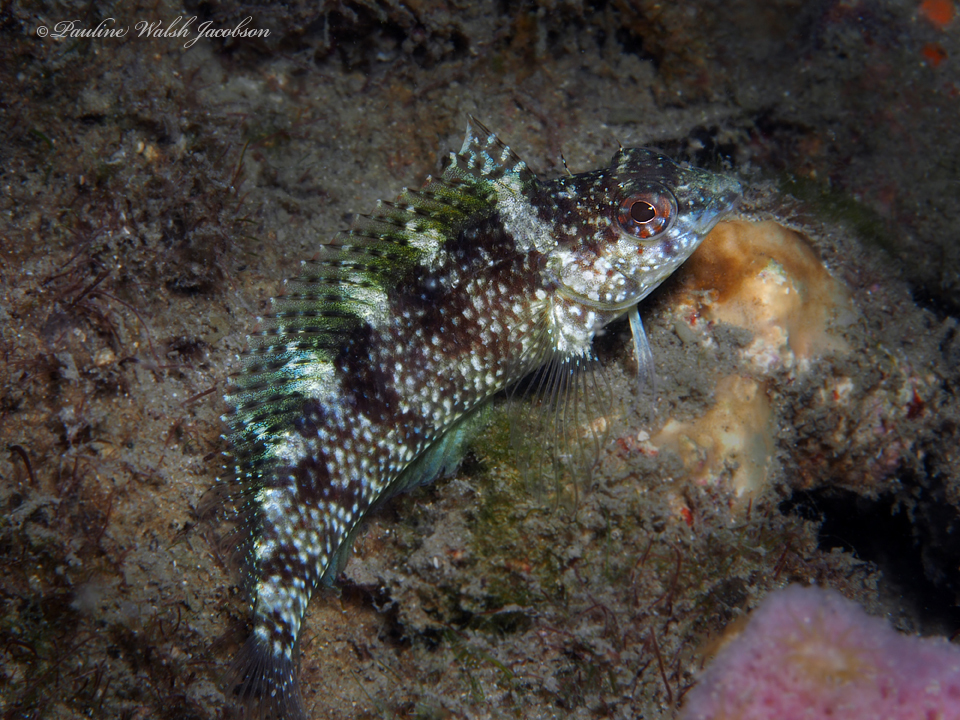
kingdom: Animalia
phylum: Chordata
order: Perciformes
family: Labrisomidae
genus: Malacoctenus
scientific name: Malacoctenus macropus
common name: Rosy blenny
